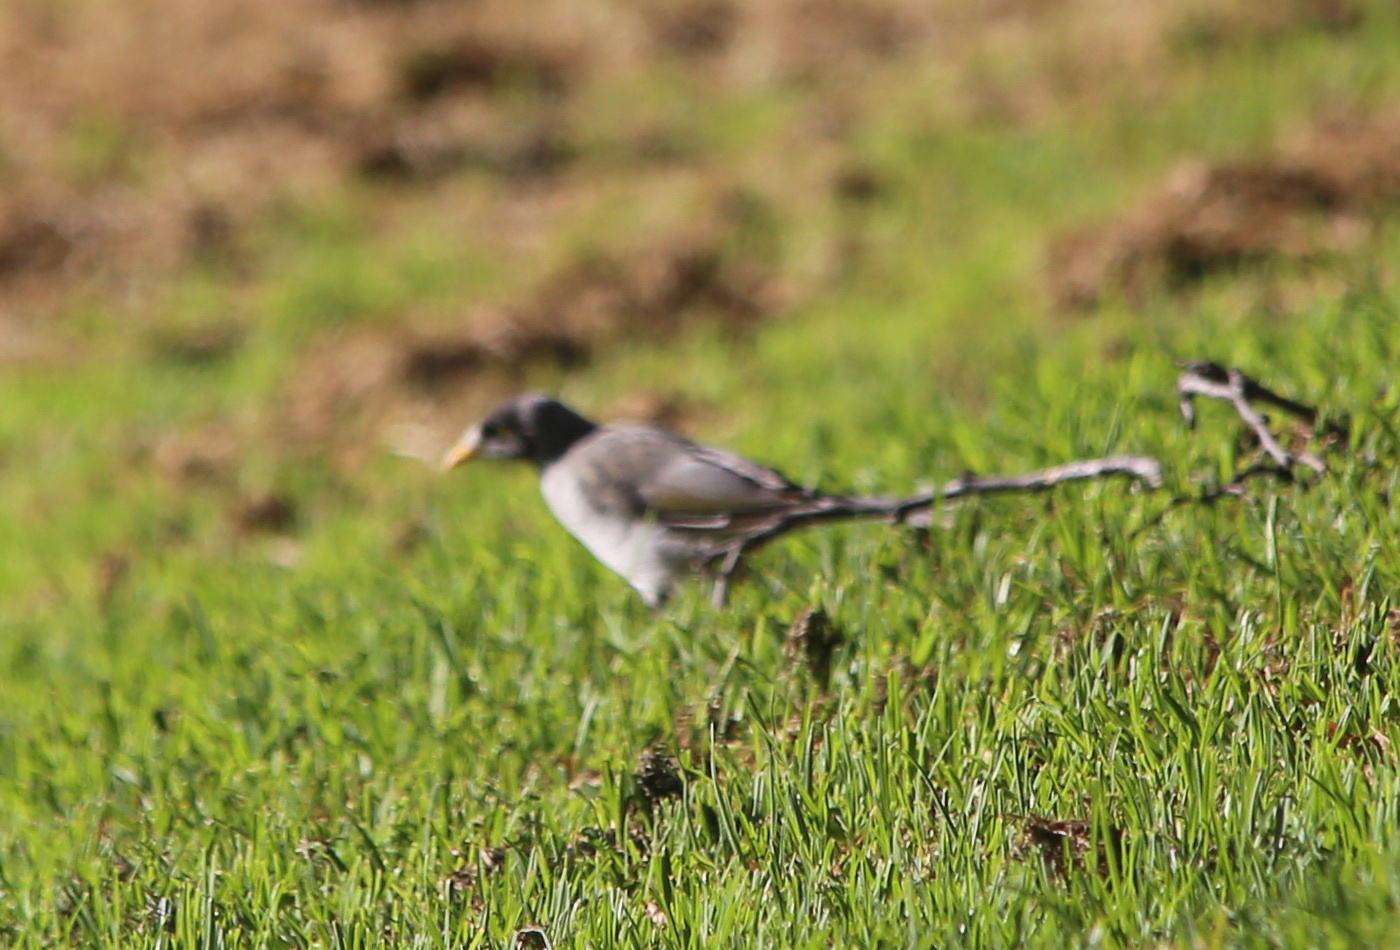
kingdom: Animalia
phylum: Chordata
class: Aves
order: Passeriformes
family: Meliphagidae
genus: Manorina
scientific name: Manorina melanocephala
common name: Noisy miner
